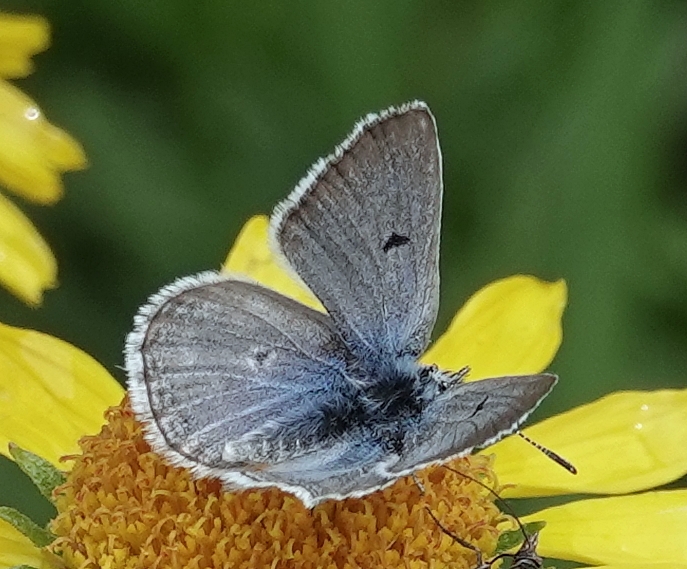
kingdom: Animalia
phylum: Arthropoda
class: Insecta
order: Lepidoptera
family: Lycaenidae
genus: Agriades
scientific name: Agriades glandon
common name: Glandon blue
